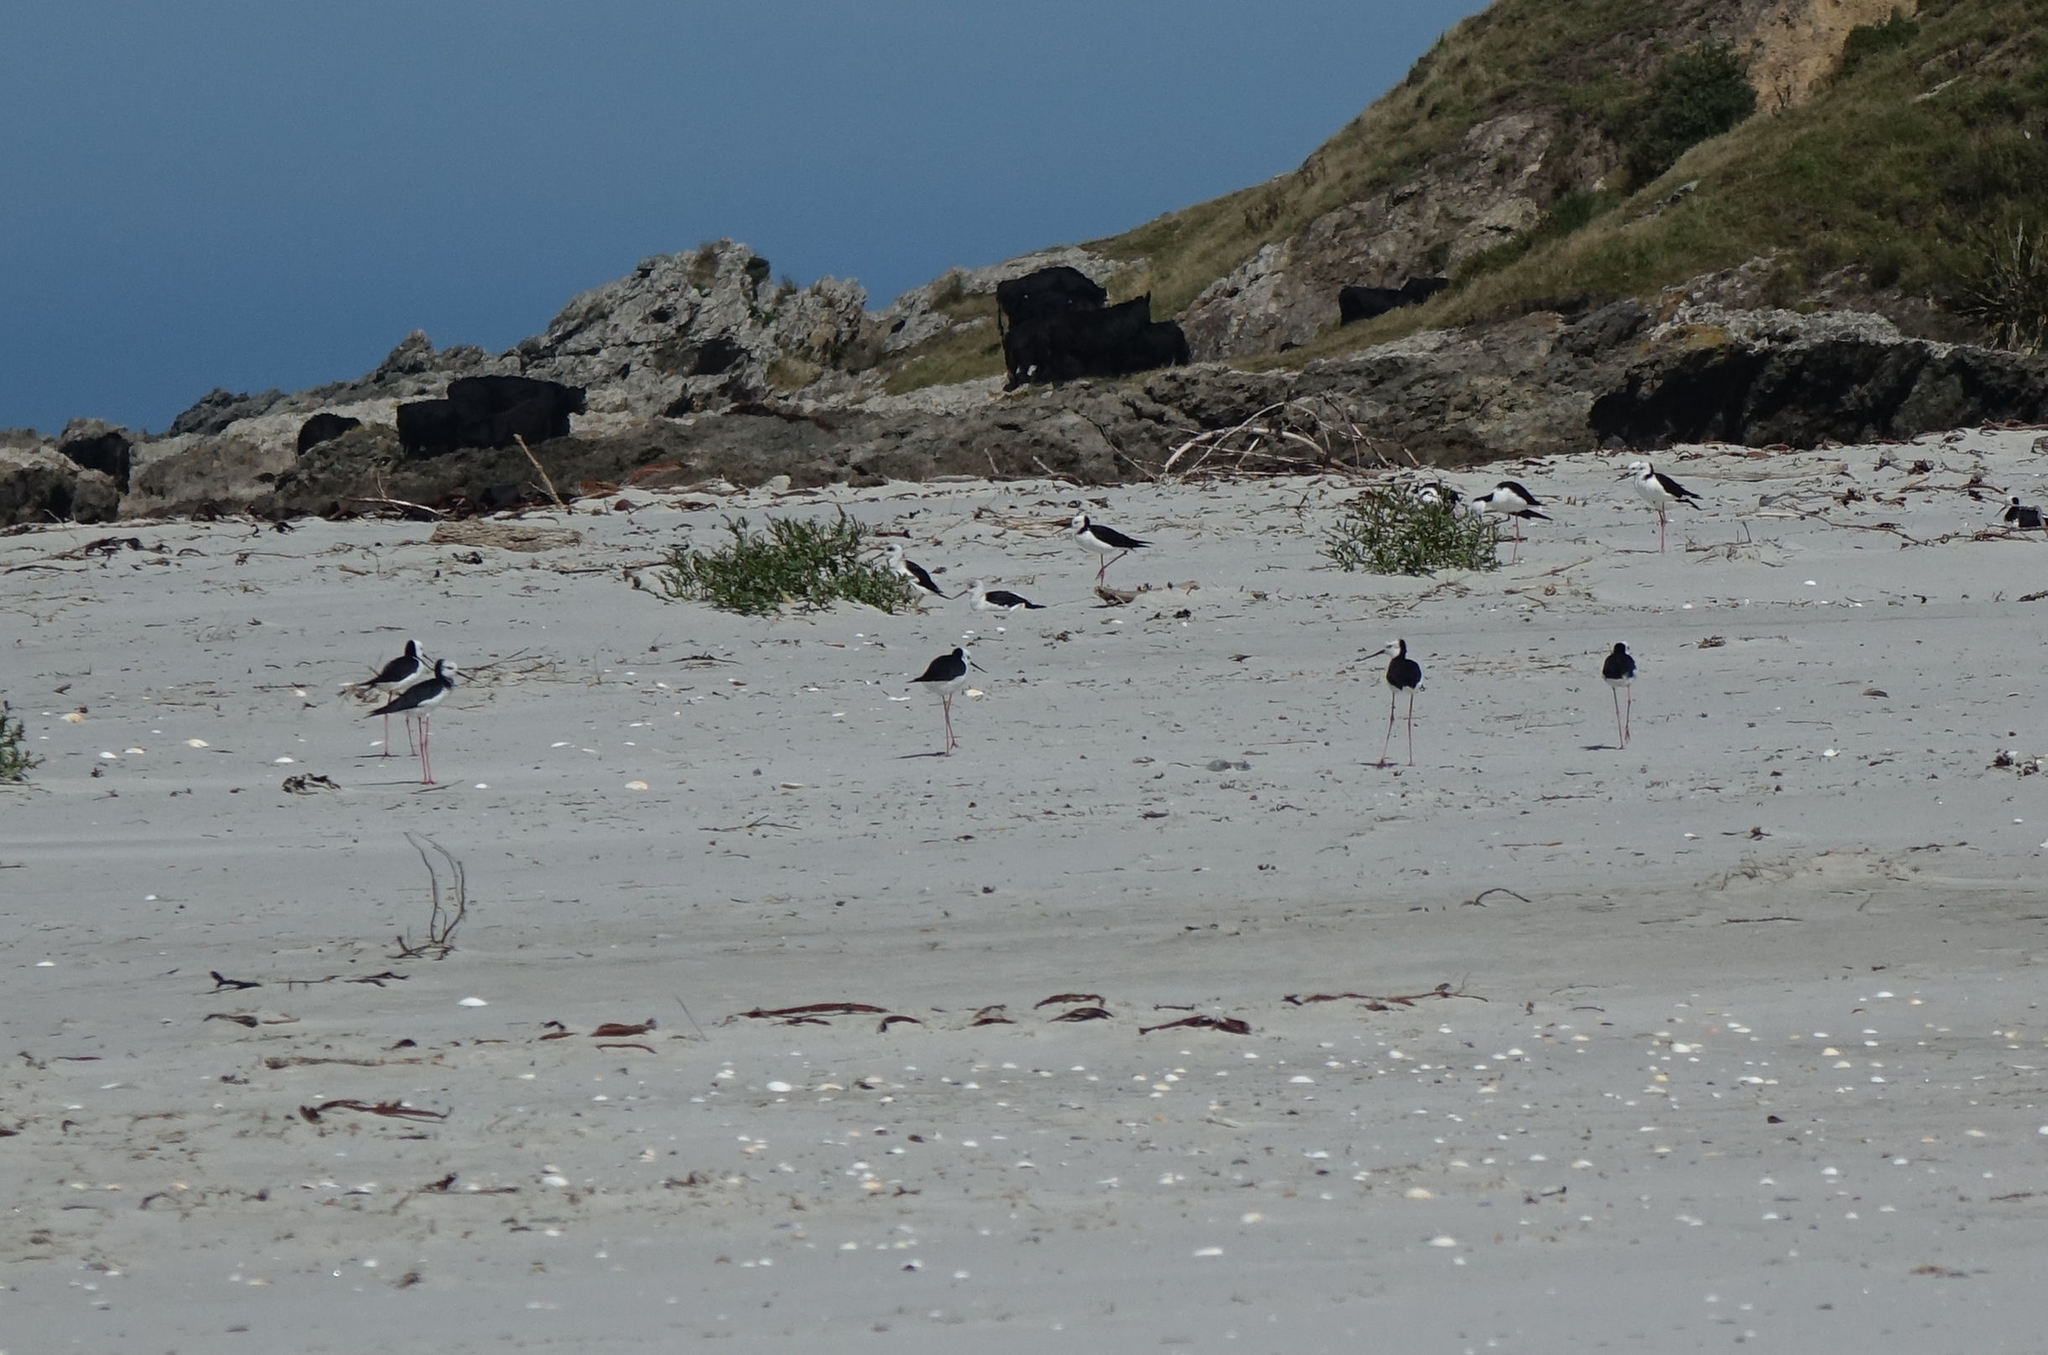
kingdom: Animalia
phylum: Chordata
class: Aves
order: Charadriiformes
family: Recurvirostridae
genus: Himantopus
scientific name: Himantopus leucocephalus
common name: White-headed stilt
